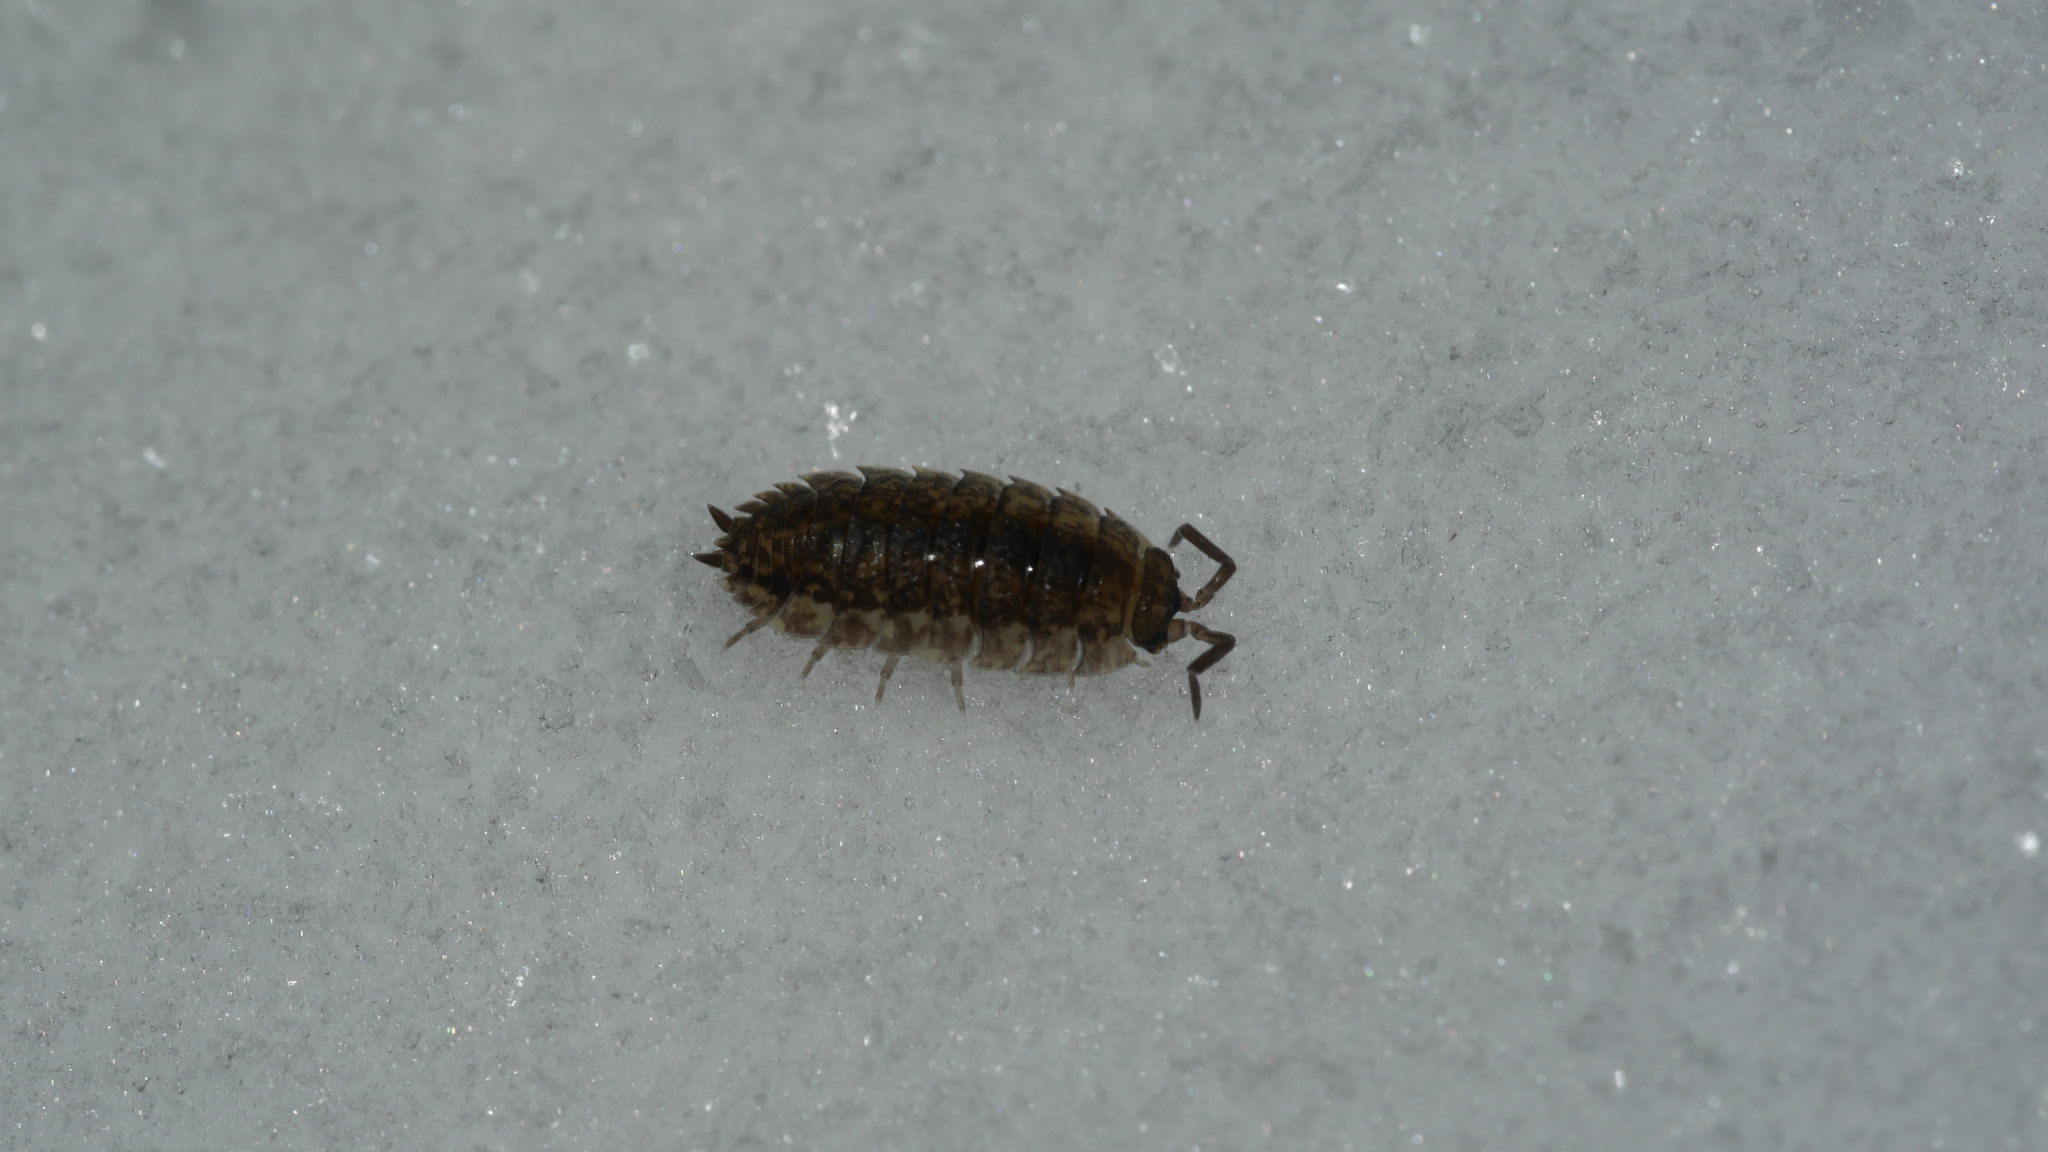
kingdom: Animalia
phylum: Arthropoda
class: Malacostraca
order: Isopoda
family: Porcellionidae
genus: Porcellio
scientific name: Porcellio scaber
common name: Common rough woodlouse
